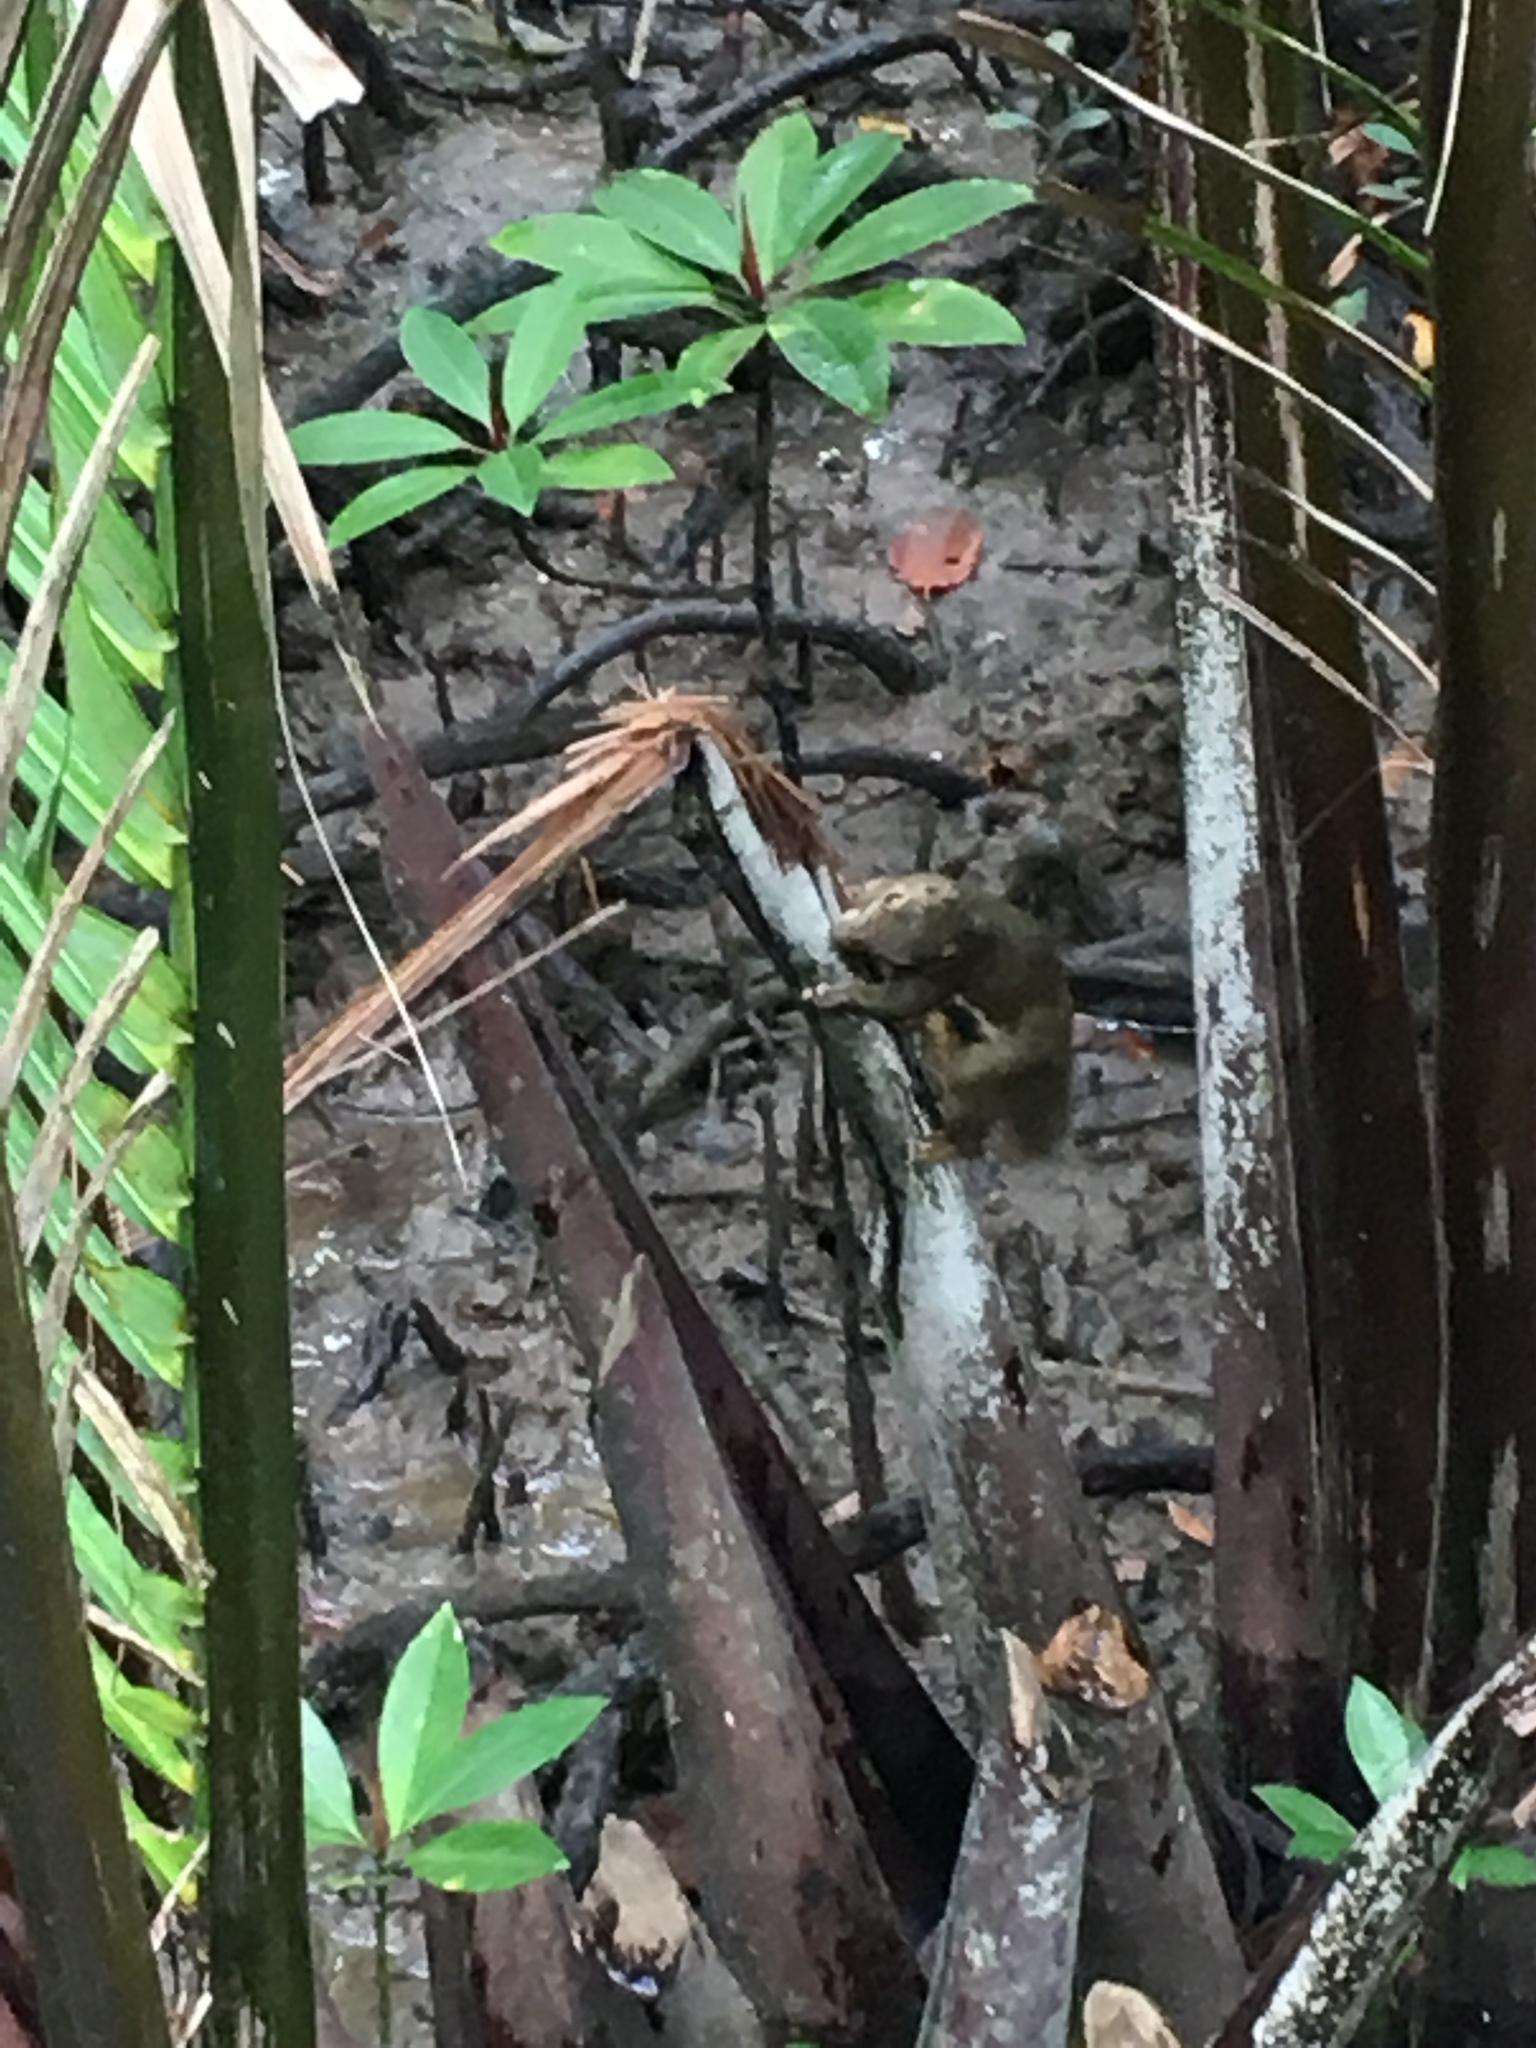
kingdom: Animalia
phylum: Chordata
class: Mammalia
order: Rodentia
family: Sciuridae
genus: Callosciurus
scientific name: Callosciurus notatus
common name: Plantain squirrel
